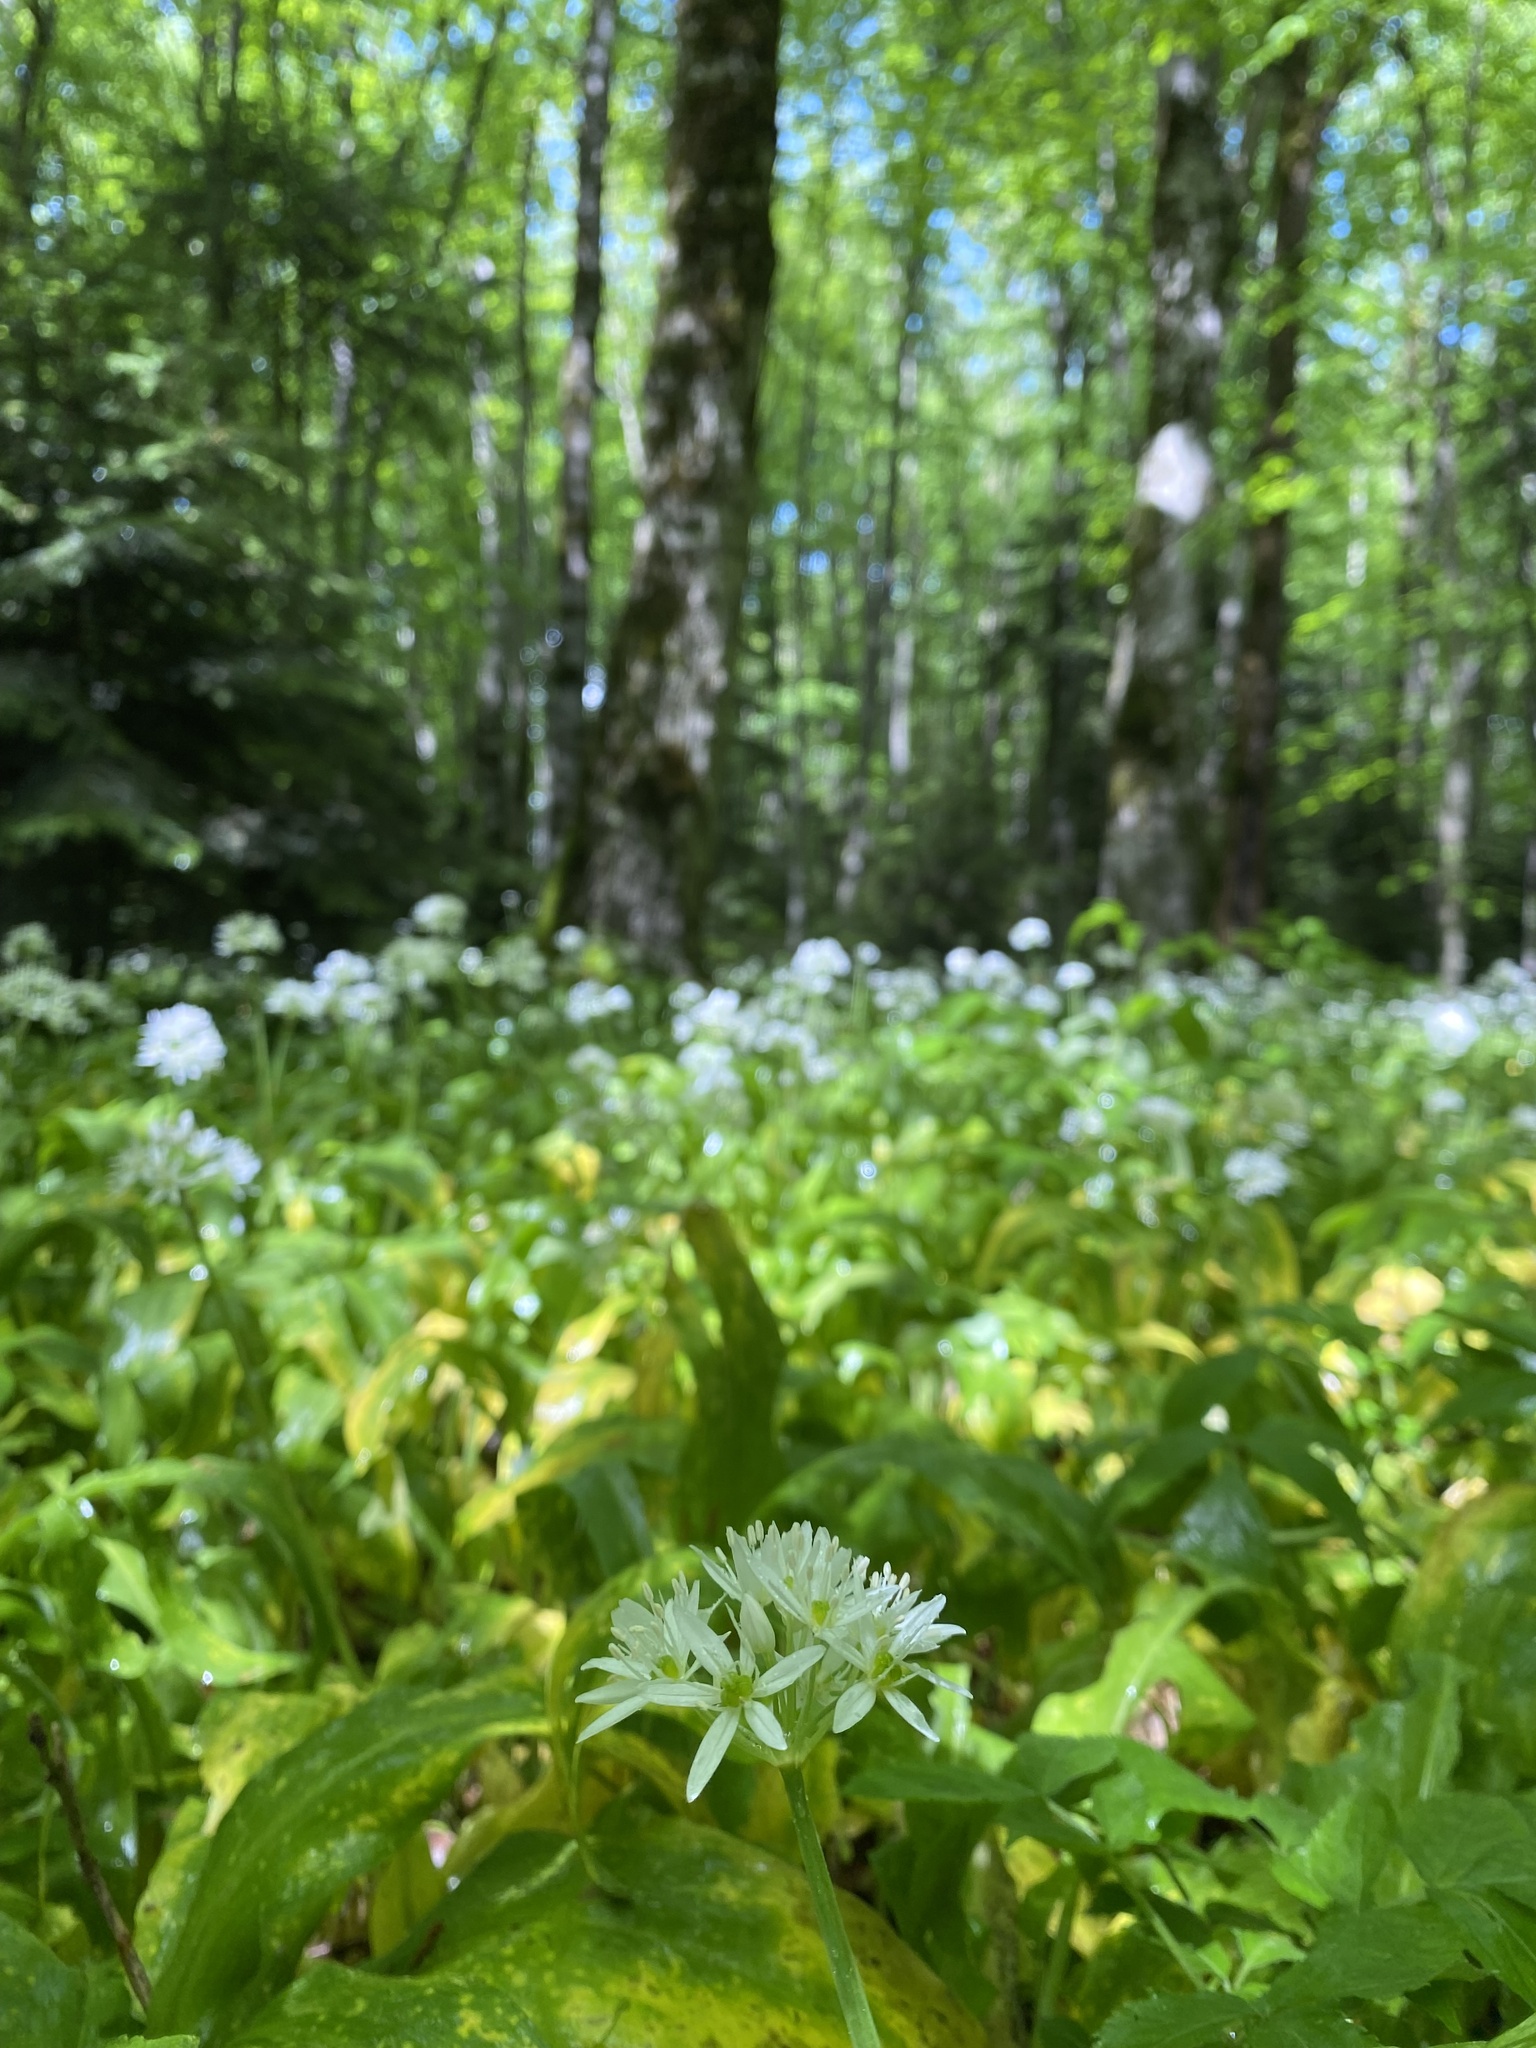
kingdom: Plantae
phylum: Tracheophyta
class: Liliopsida
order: Asparagales
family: Amaryllidaceae
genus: Allium
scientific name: Allium ursinum
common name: Ramsons
